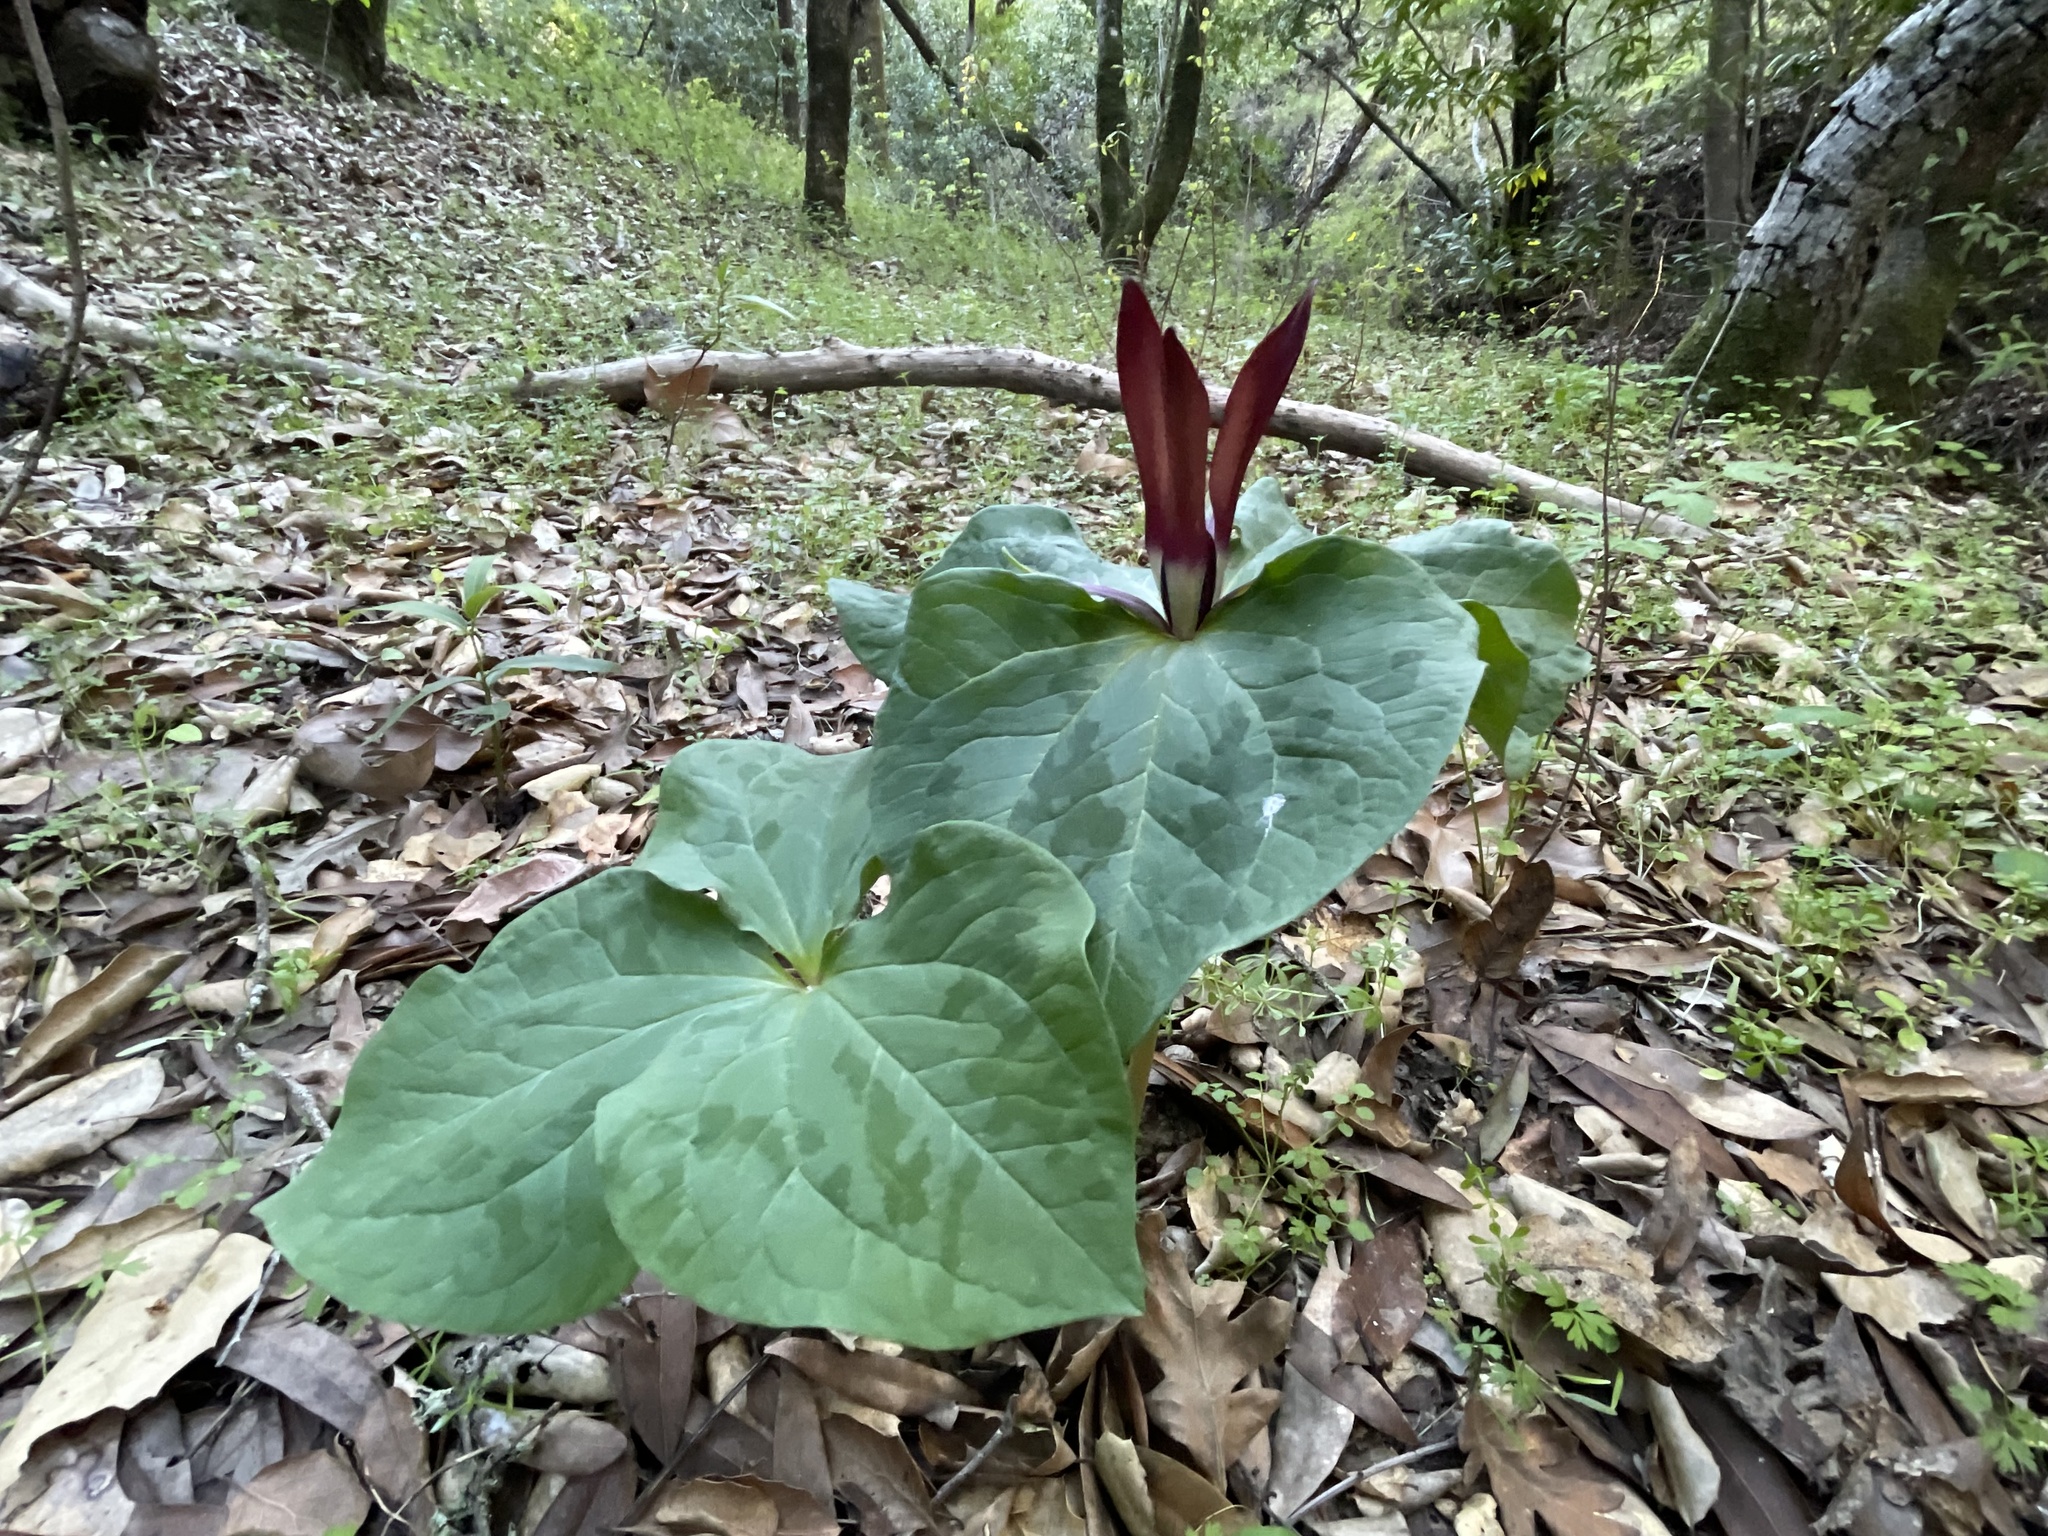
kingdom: Plantae
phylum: Tracheophyta
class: Liliopsida
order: Liliales
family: Melanthiaceae
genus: Trillium
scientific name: Trillium chloropetalum
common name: Giant trillium
